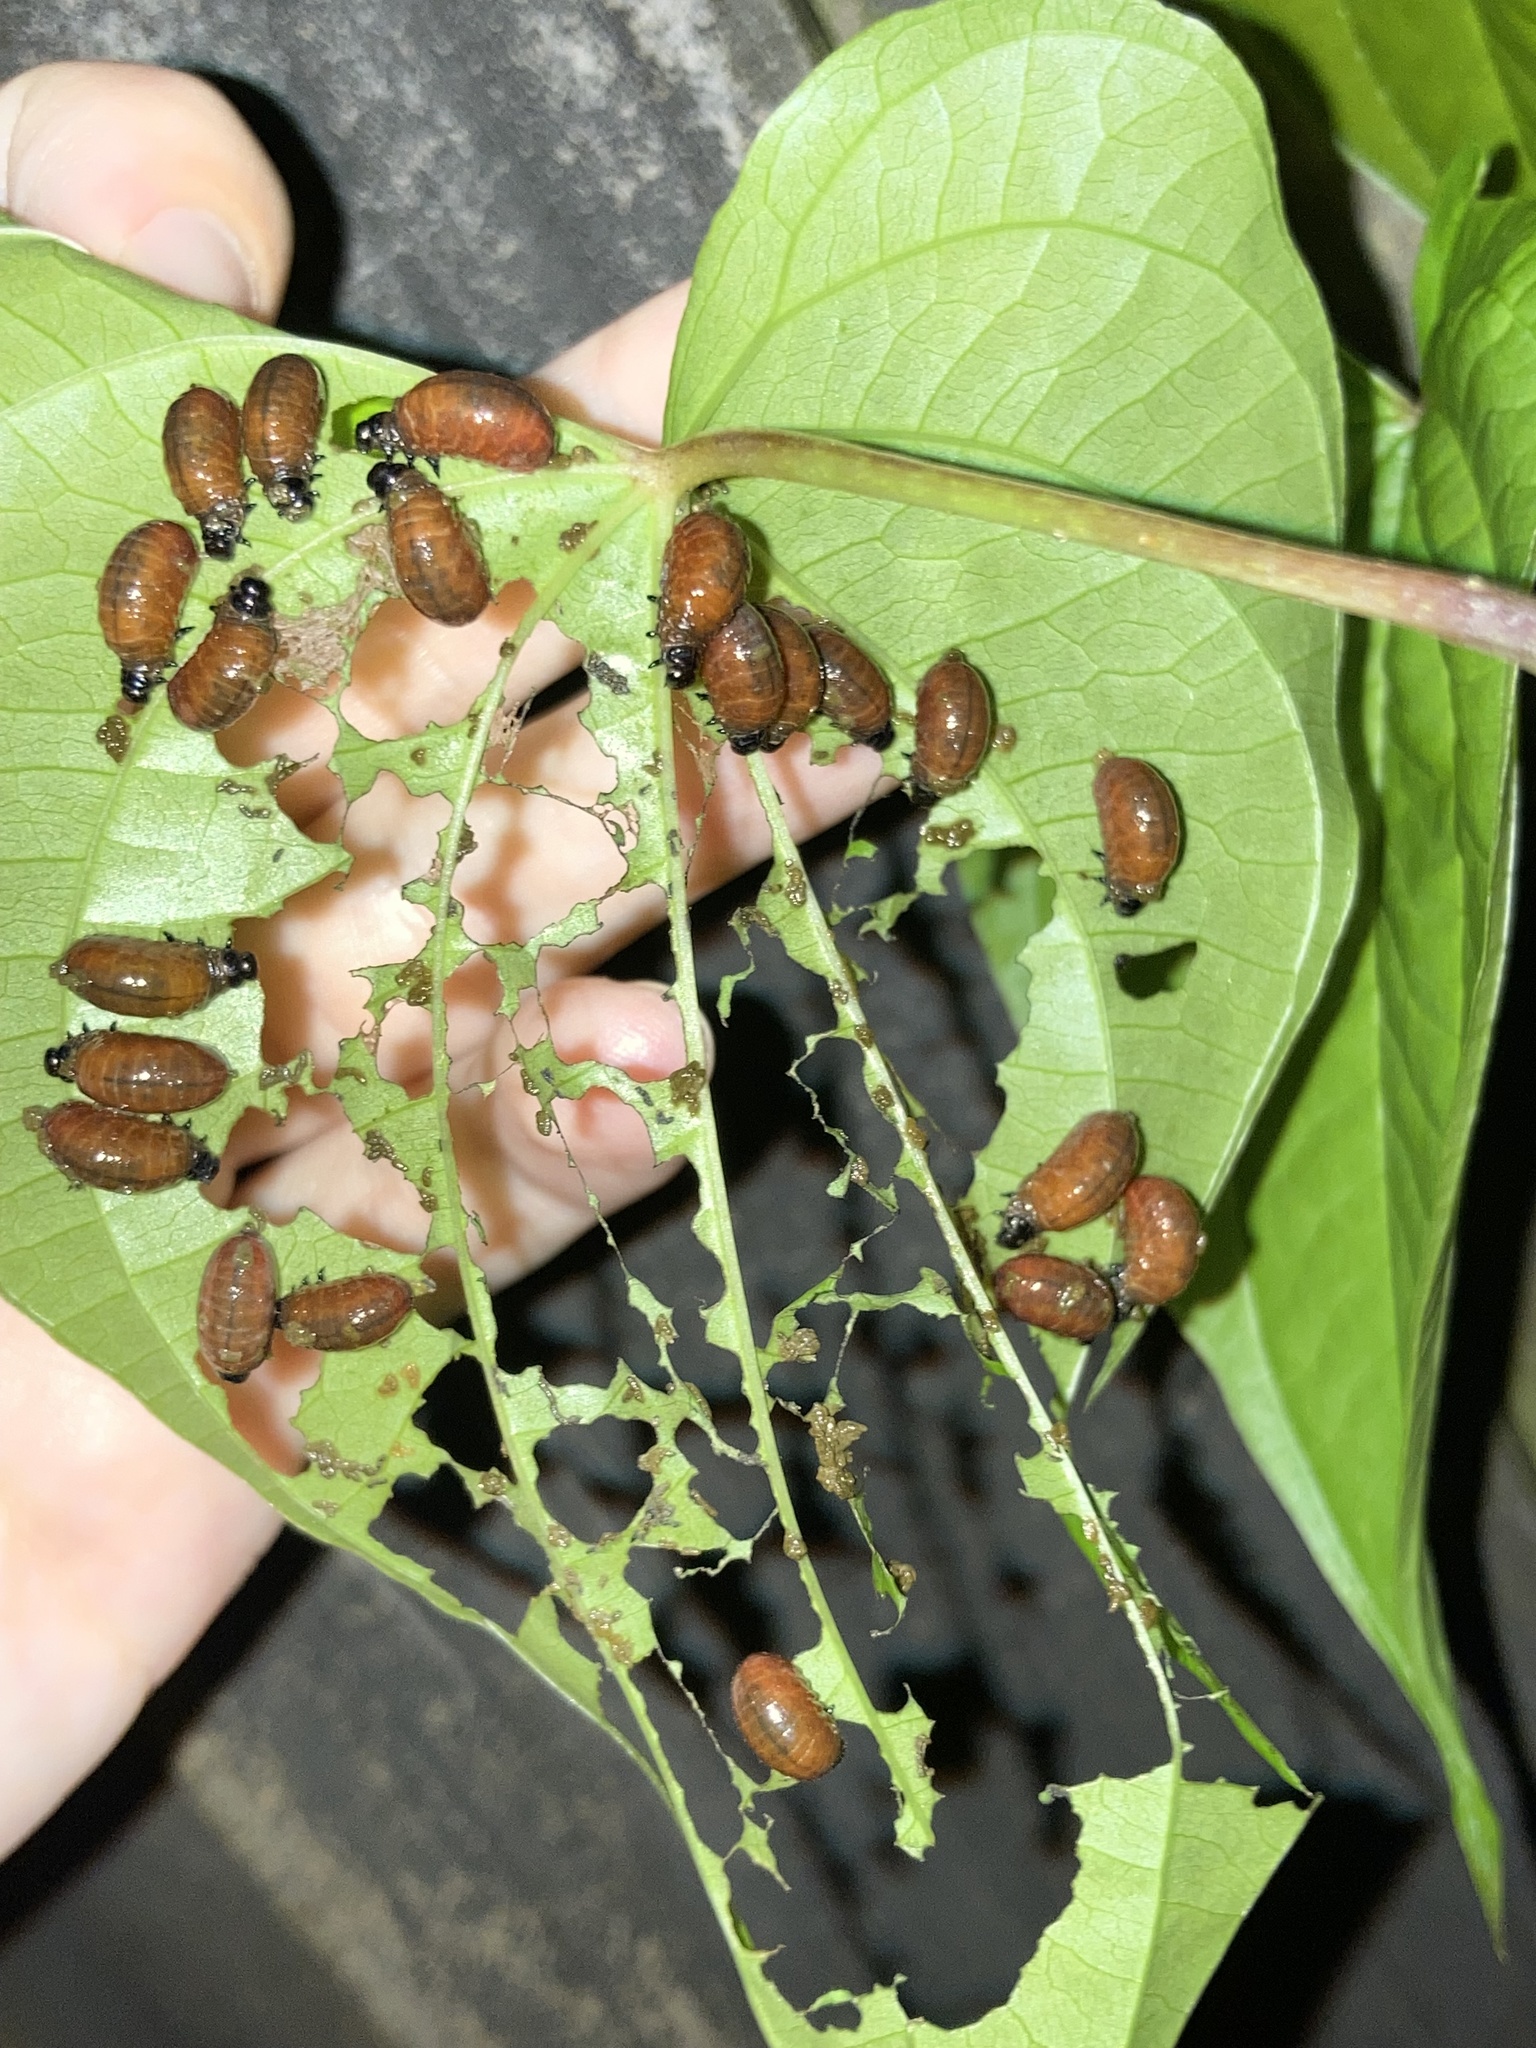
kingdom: Animalia
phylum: Arthropoda
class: Insecta
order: Coleoptera
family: Chrysomelidae
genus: Lilioceris
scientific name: Lilioceris cheni
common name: Leaf beetle
